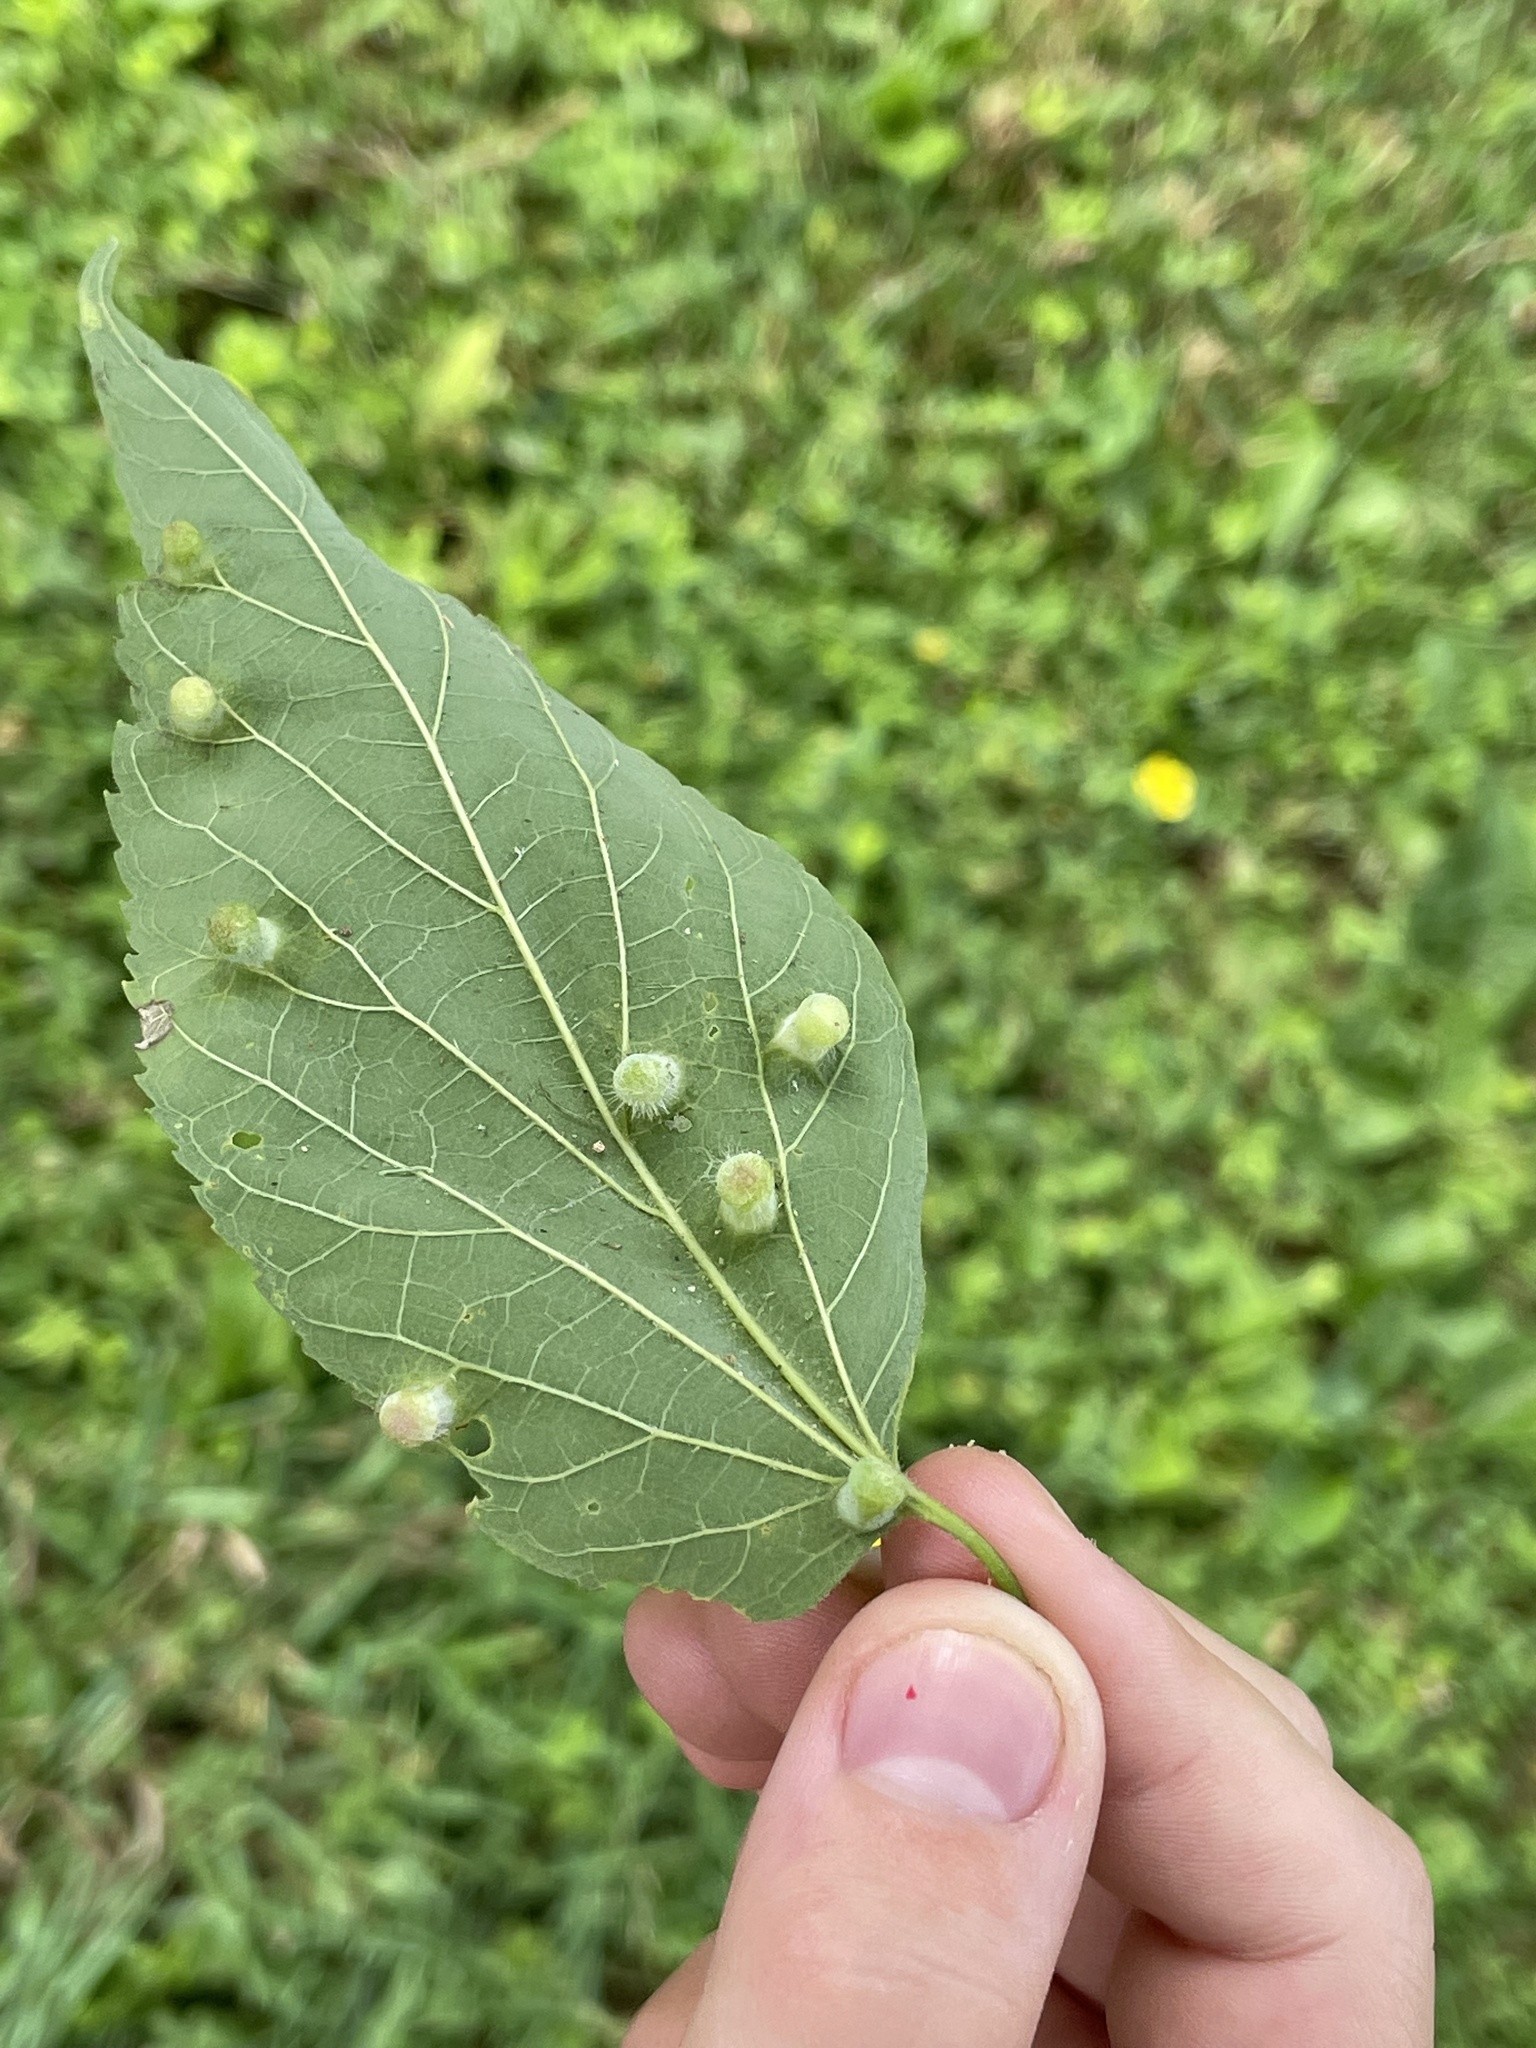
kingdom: Animalia
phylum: Arthropoda
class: Insecta
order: Hemiptera
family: Aphalaridae
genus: Pachypsylla
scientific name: Pachypsylla celtidismamma
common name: Hackberry nipplegall psyllid
